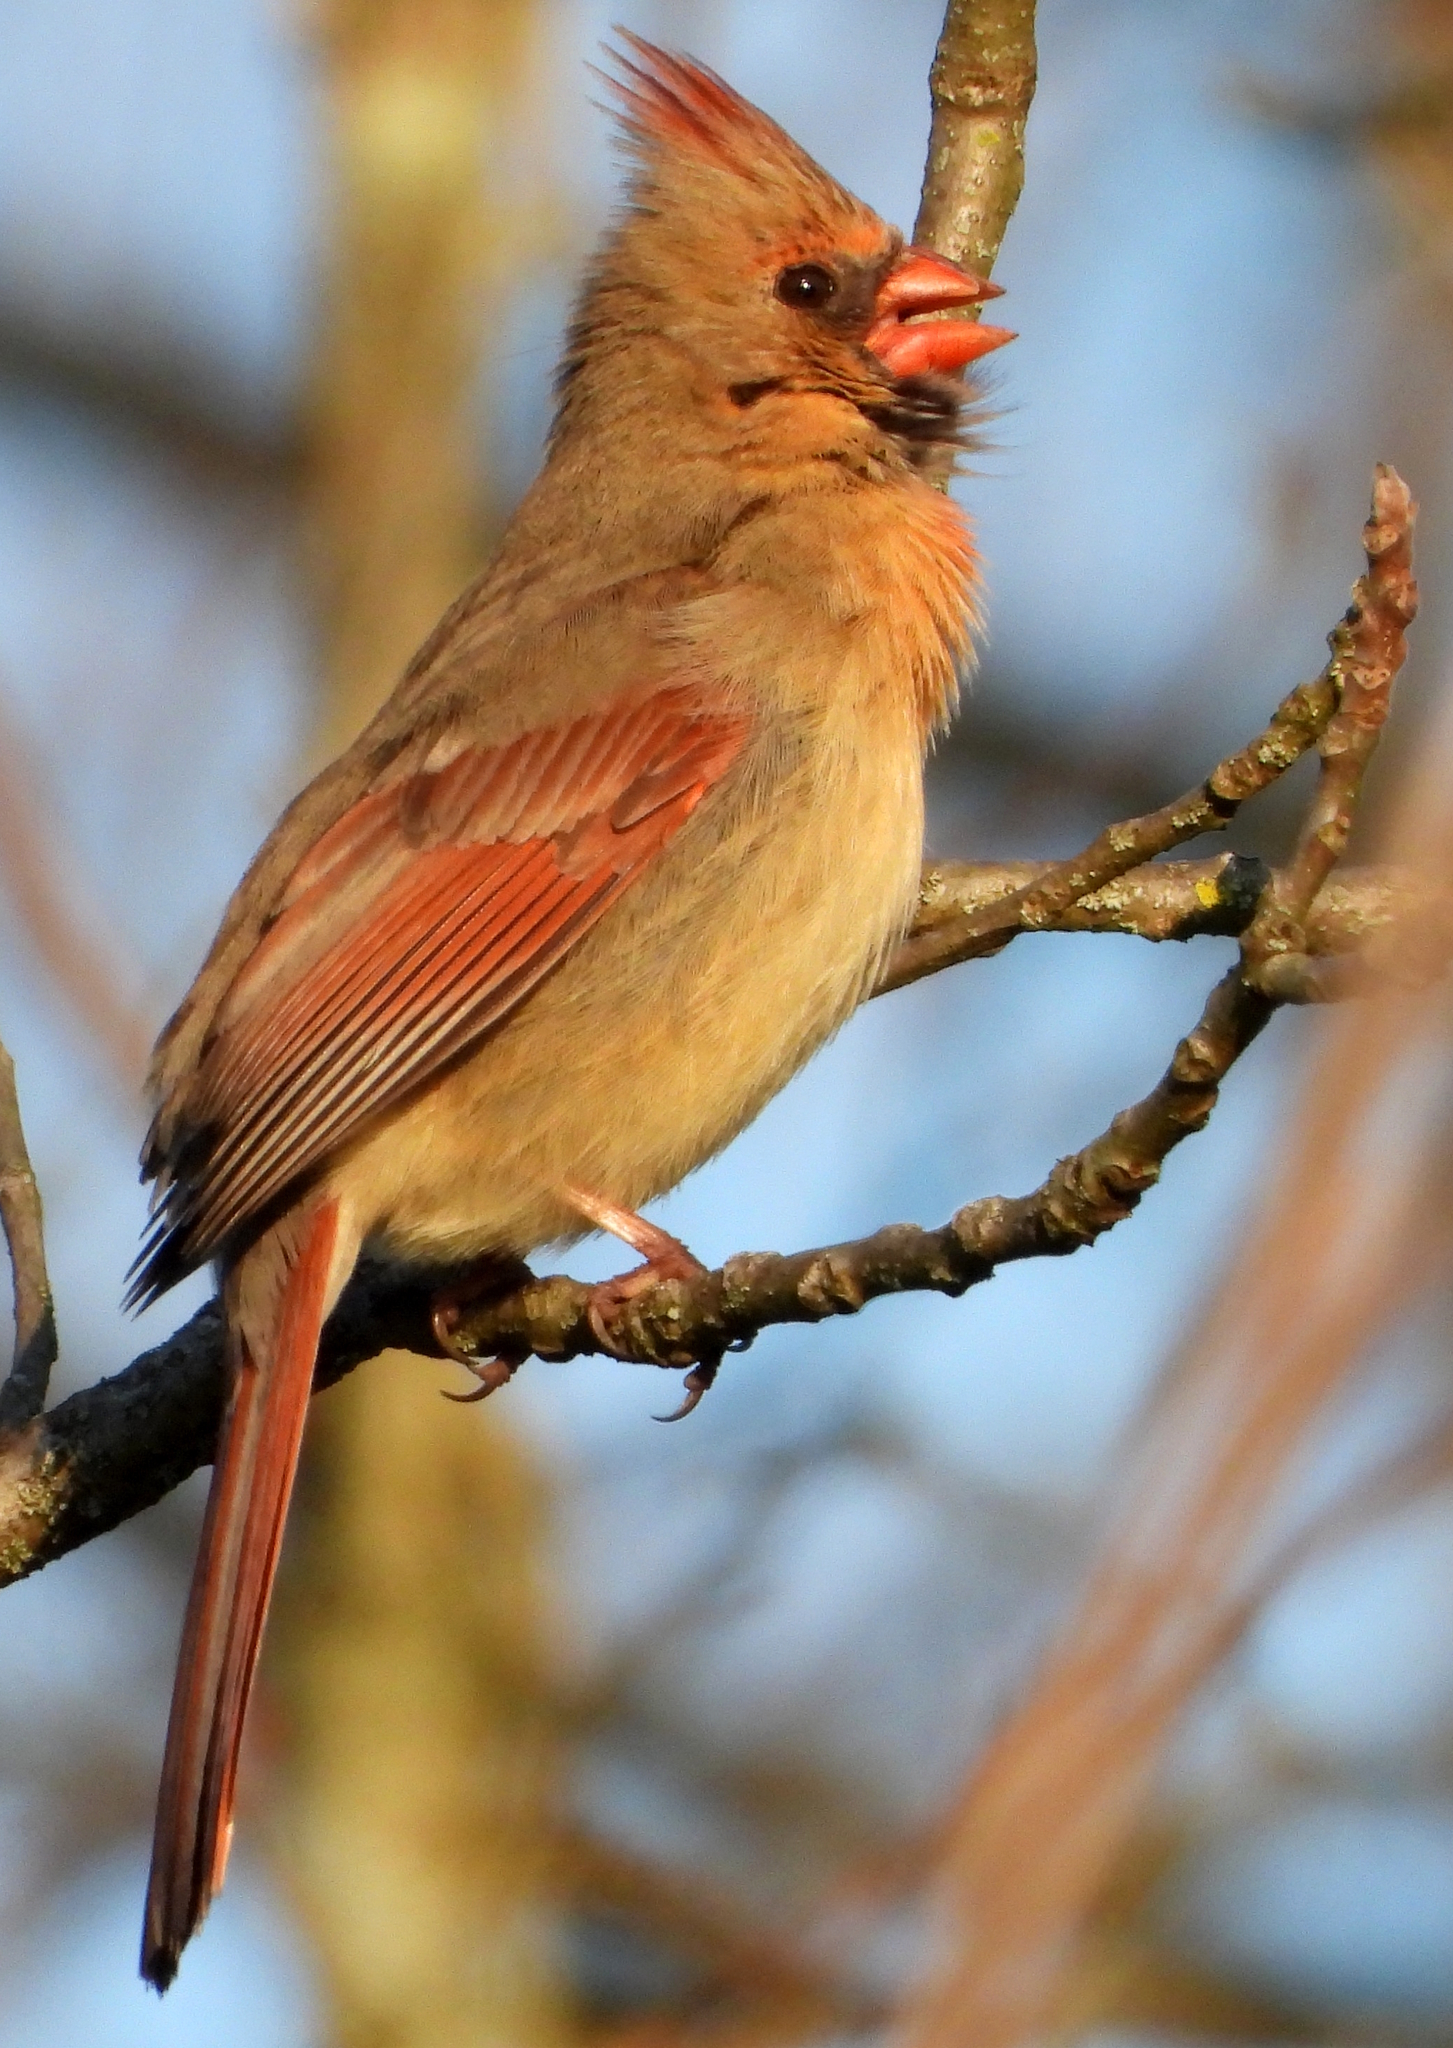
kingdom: Animalia
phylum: Chordata
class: Aves
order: Passeriformes
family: Cardinalidae
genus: Cardinalis
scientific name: Cardinalis cardinalis
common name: Northern cardinal
